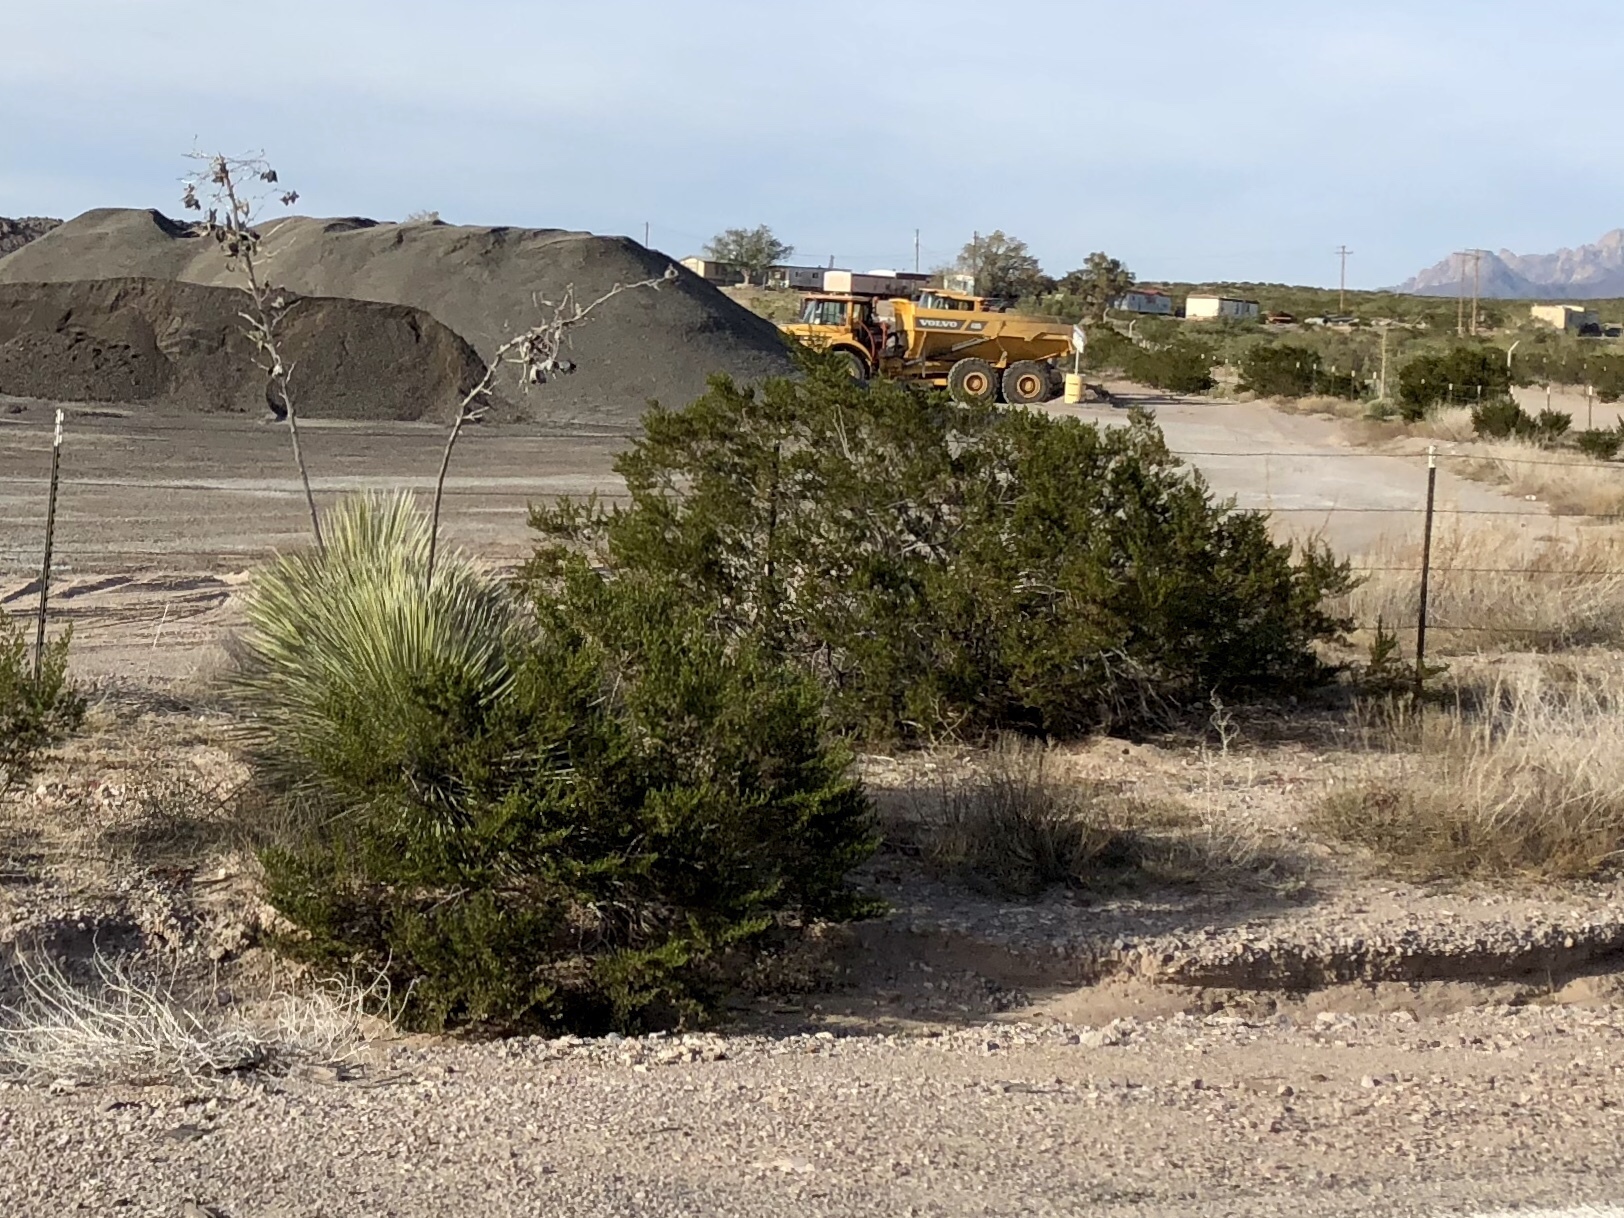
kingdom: Plantae
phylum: Tracheophyta
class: Magnoliopsida
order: Zygophyllales
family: Zygophyllaceae
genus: Larrea
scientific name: Larrea tridentata
